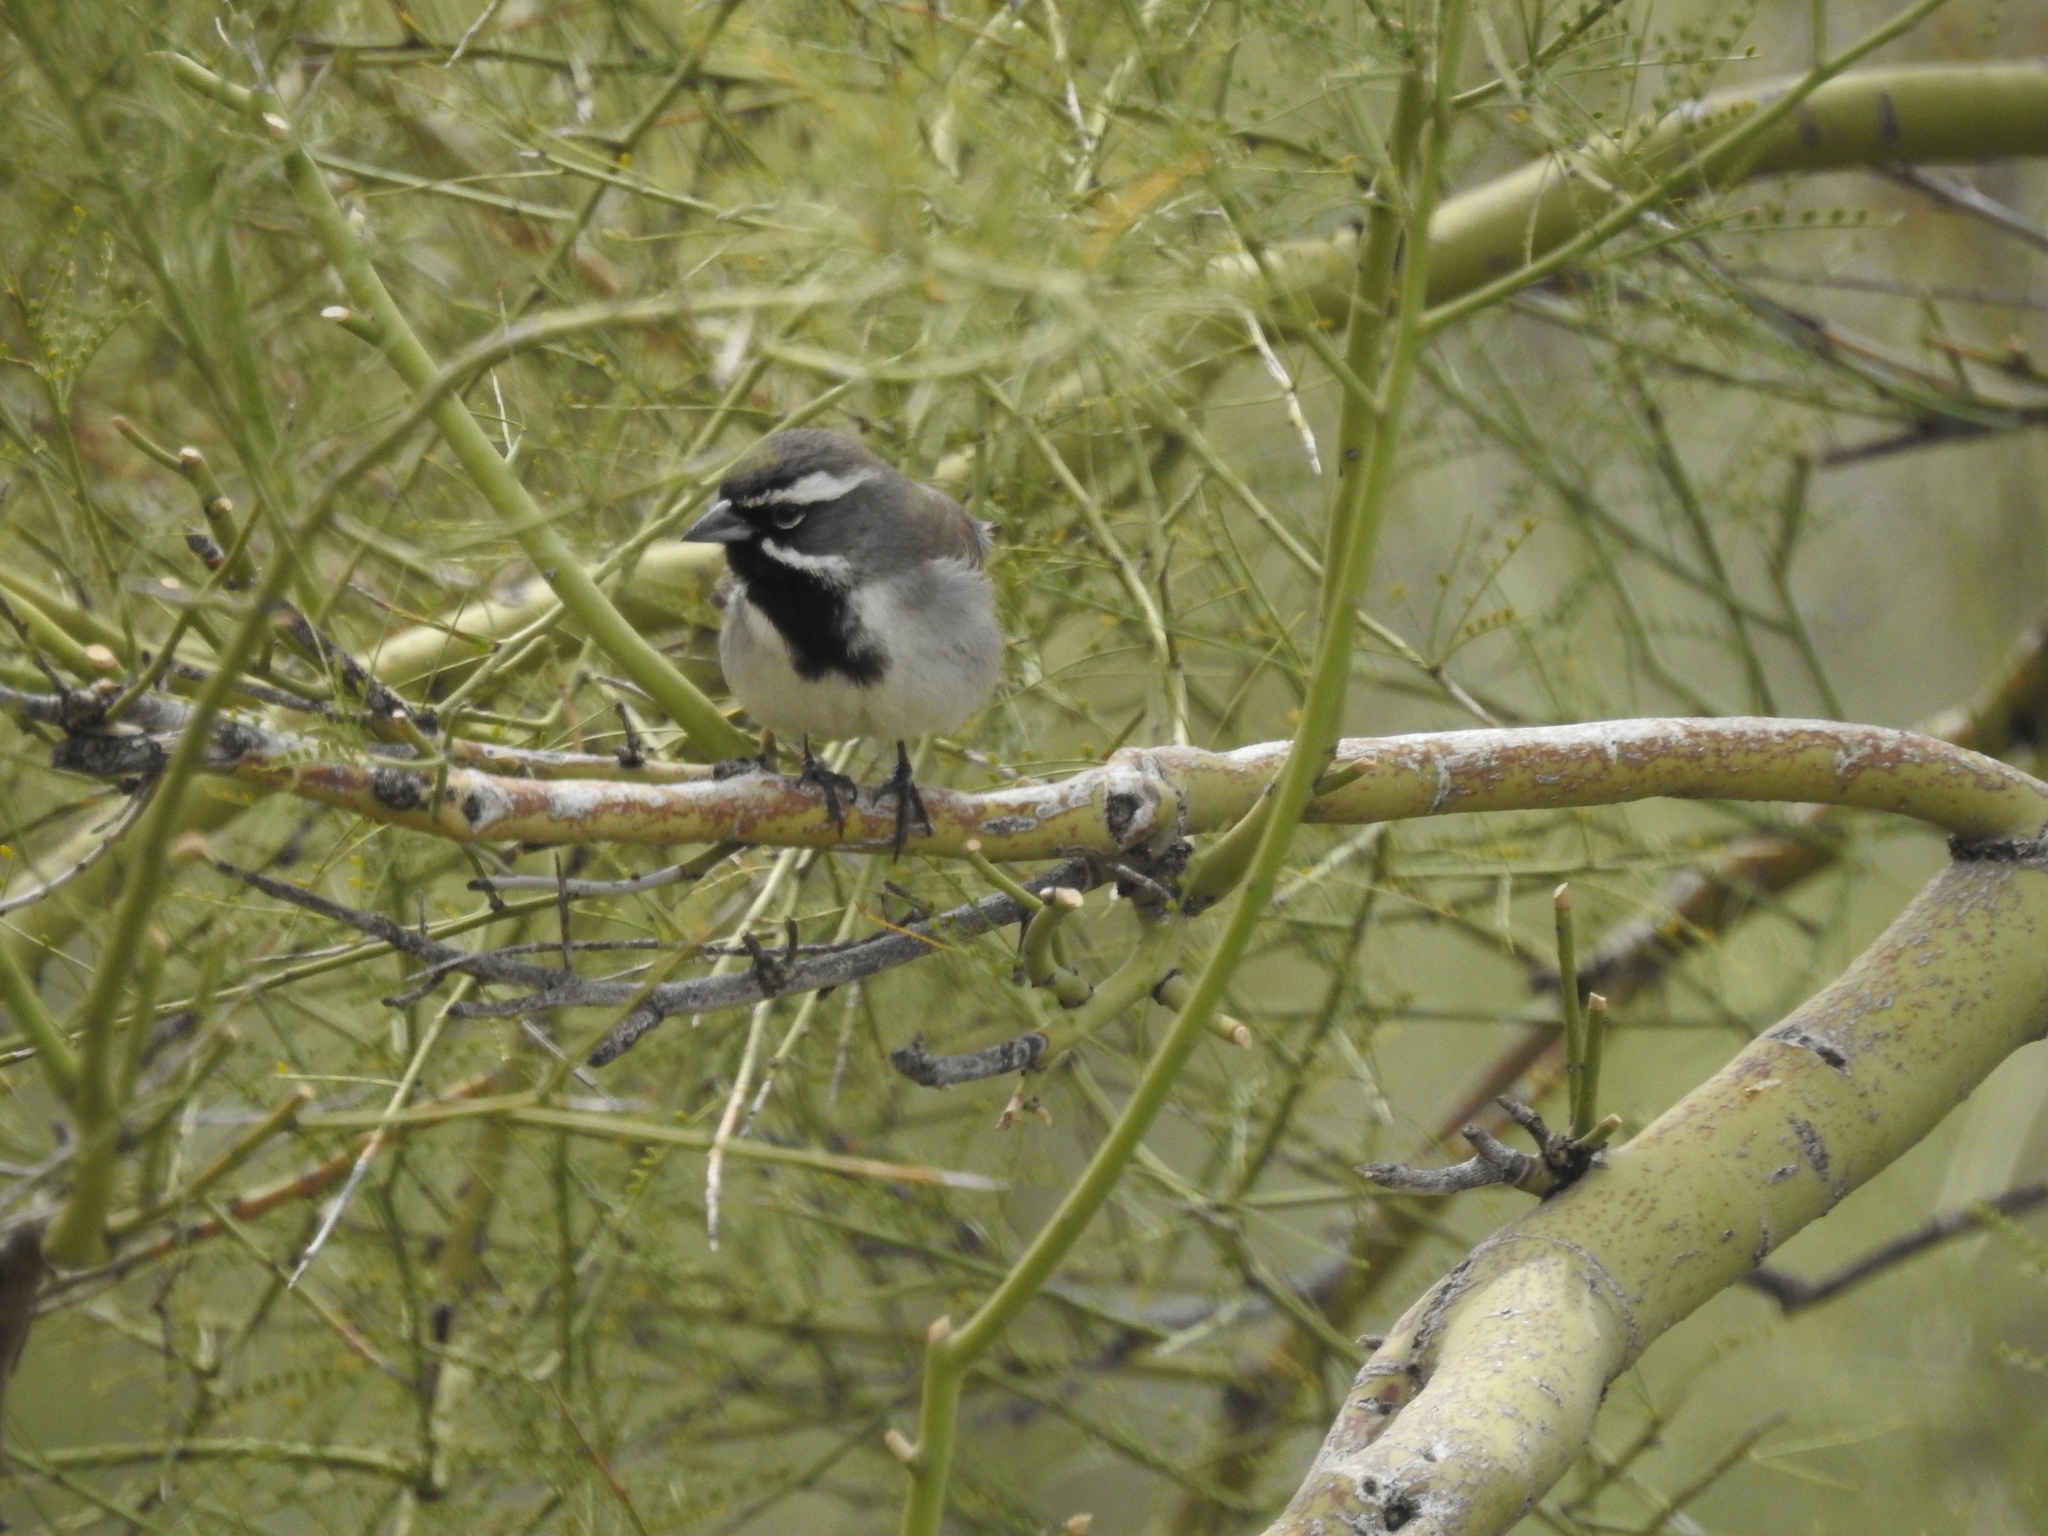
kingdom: Animalia
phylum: Chordata
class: Aves
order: Passeriformes
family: Passerellidae
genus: Amphispiza
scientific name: Amphispiza bilineata
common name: Black-throated sparrow
